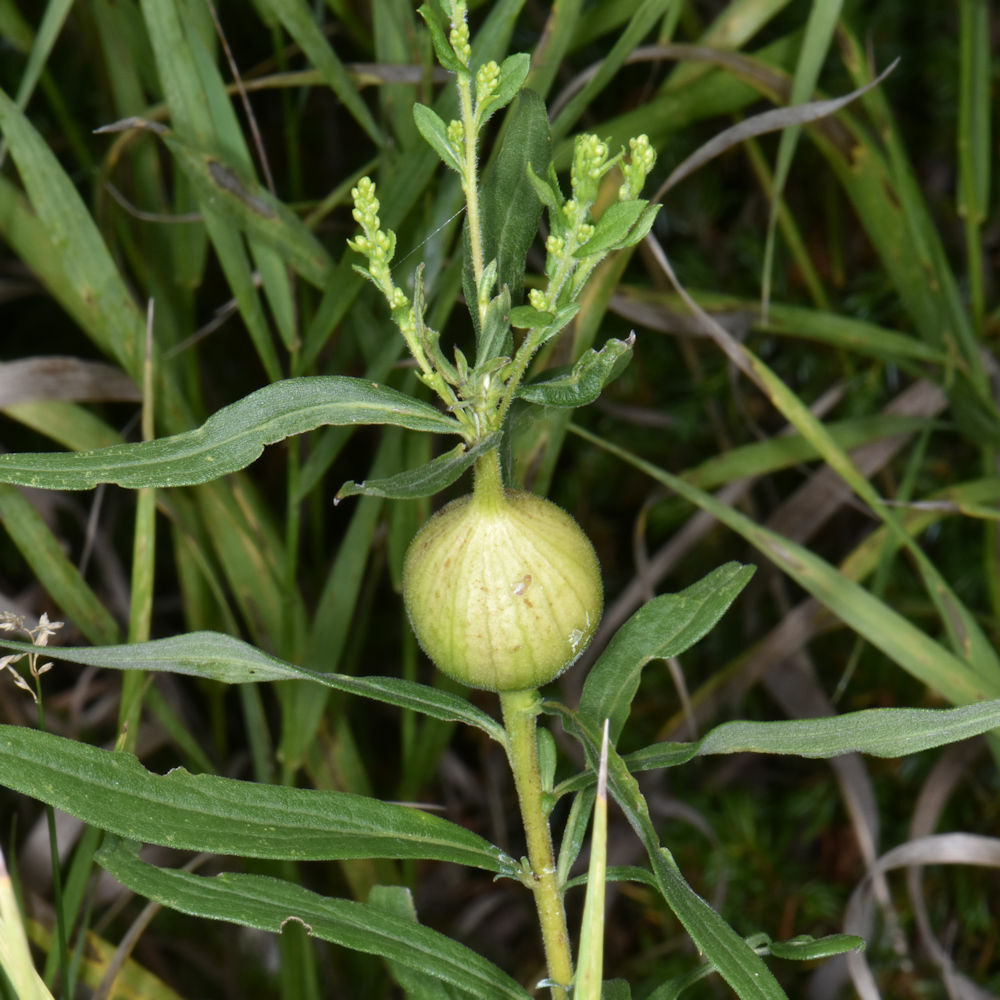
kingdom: Animalia
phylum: Arthropoda
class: Insecta
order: Diptera
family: Tephritidae
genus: Eurosta
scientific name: Eurosta solidaginis
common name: Goldenrod gall fly
